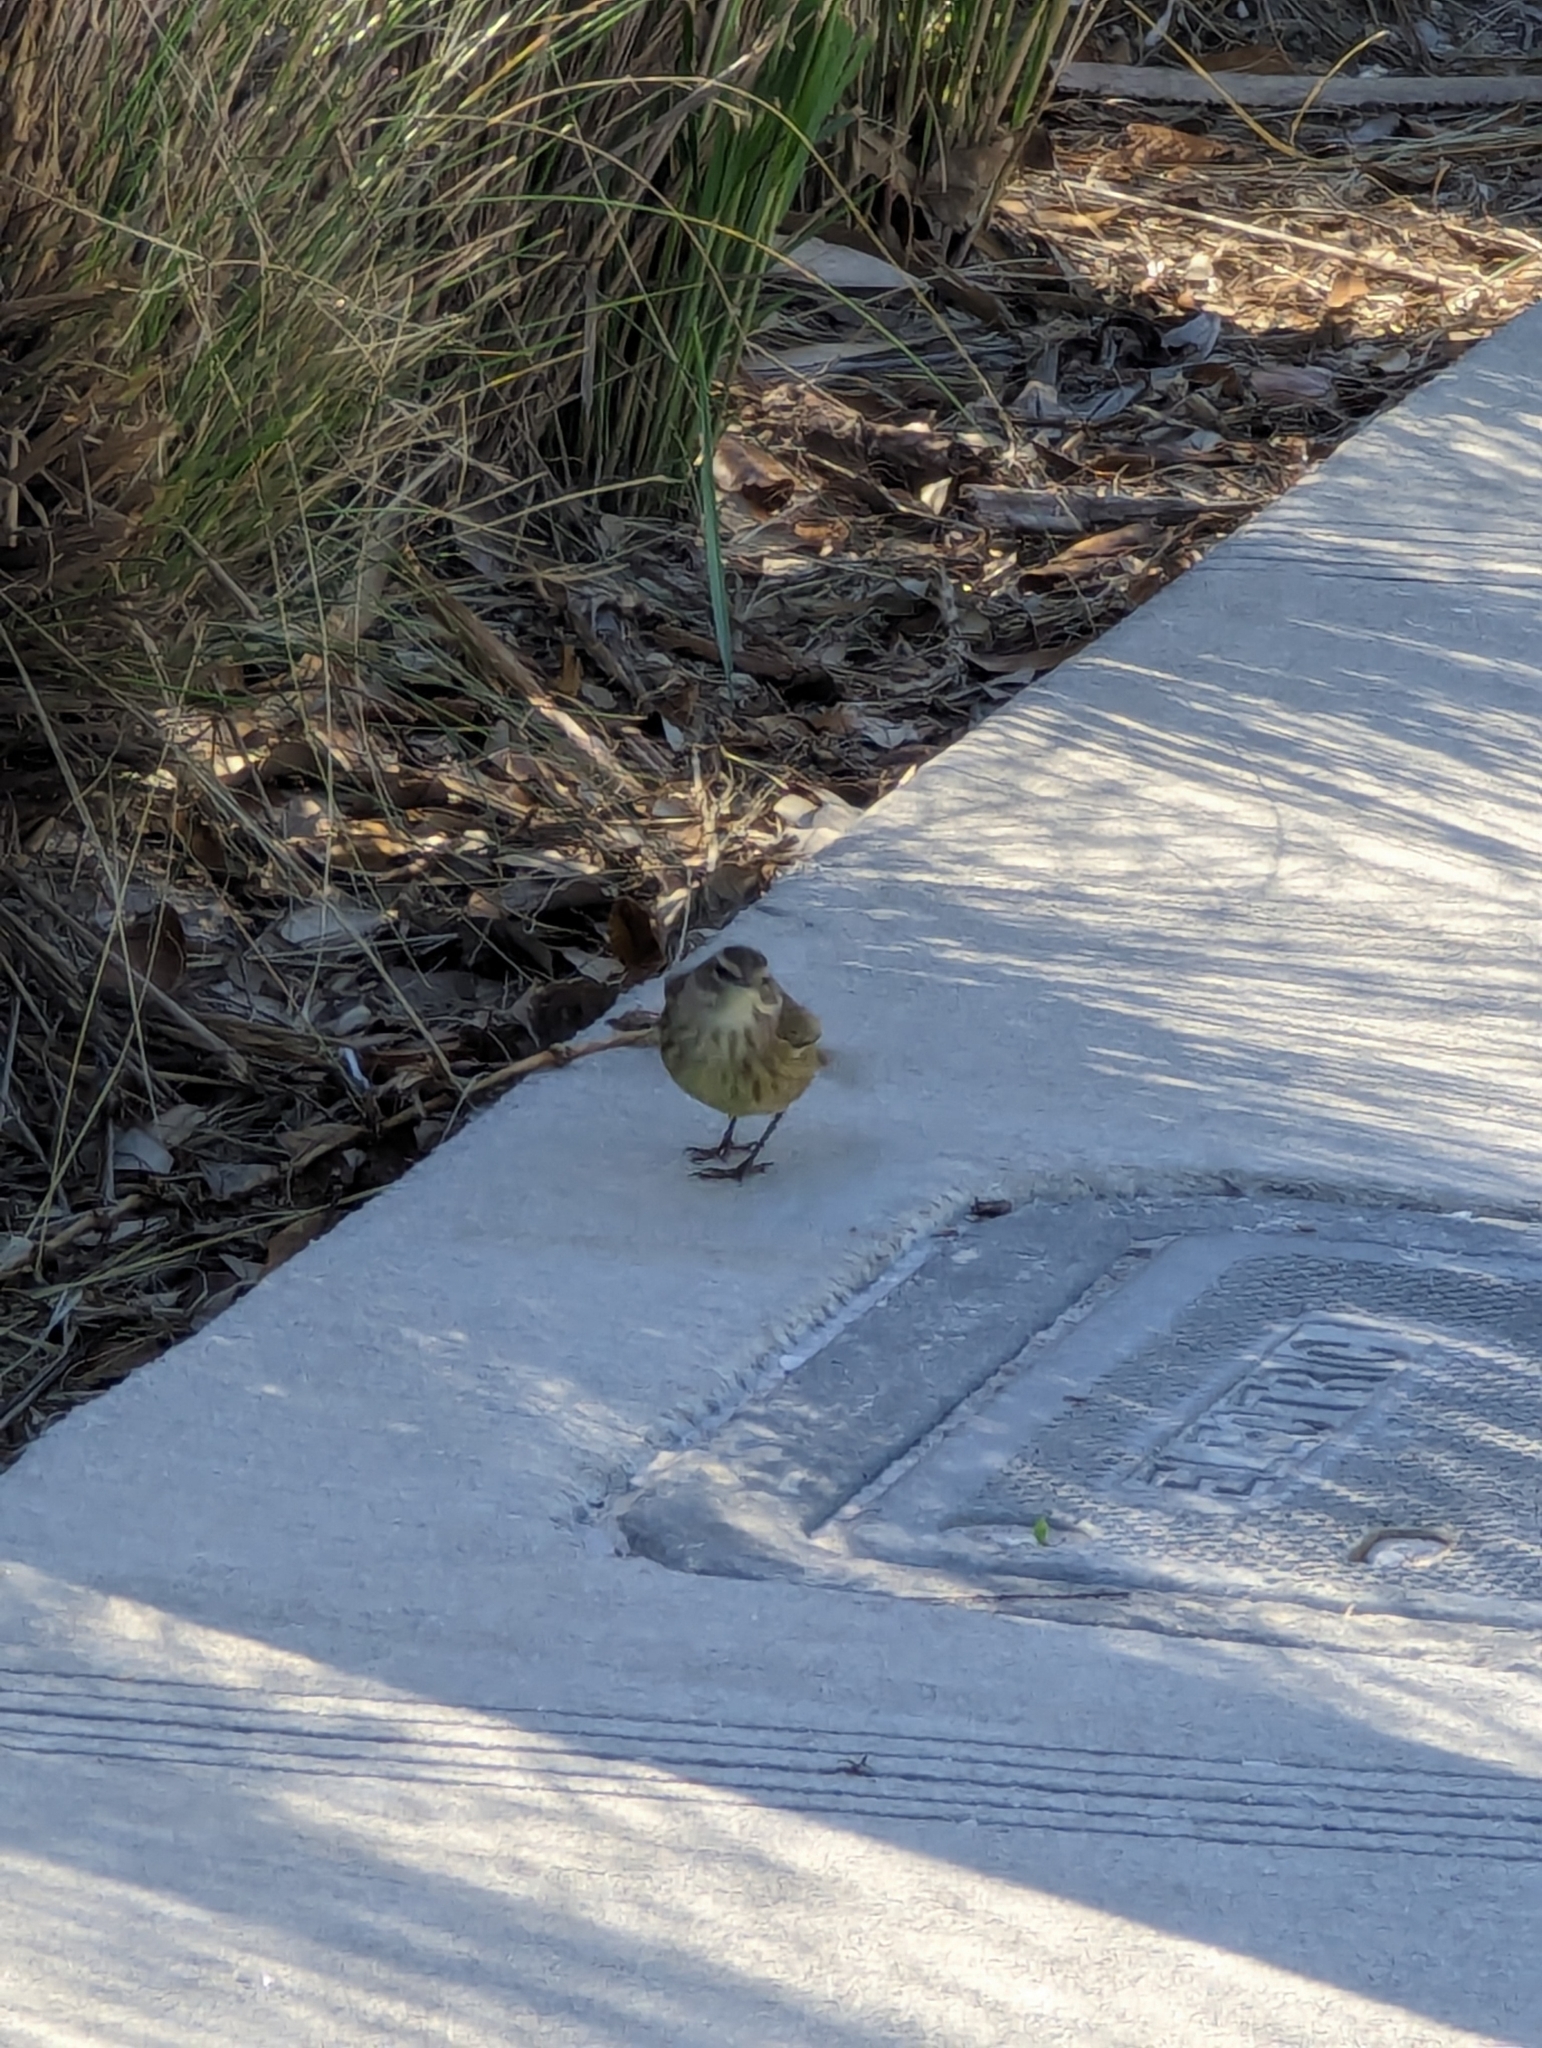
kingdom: Animalia
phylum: Chordata
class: Aves
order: Passeriformes
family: Parulidae
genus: Setophaga
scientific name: Setophaga palmarum
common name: Palm warbler
